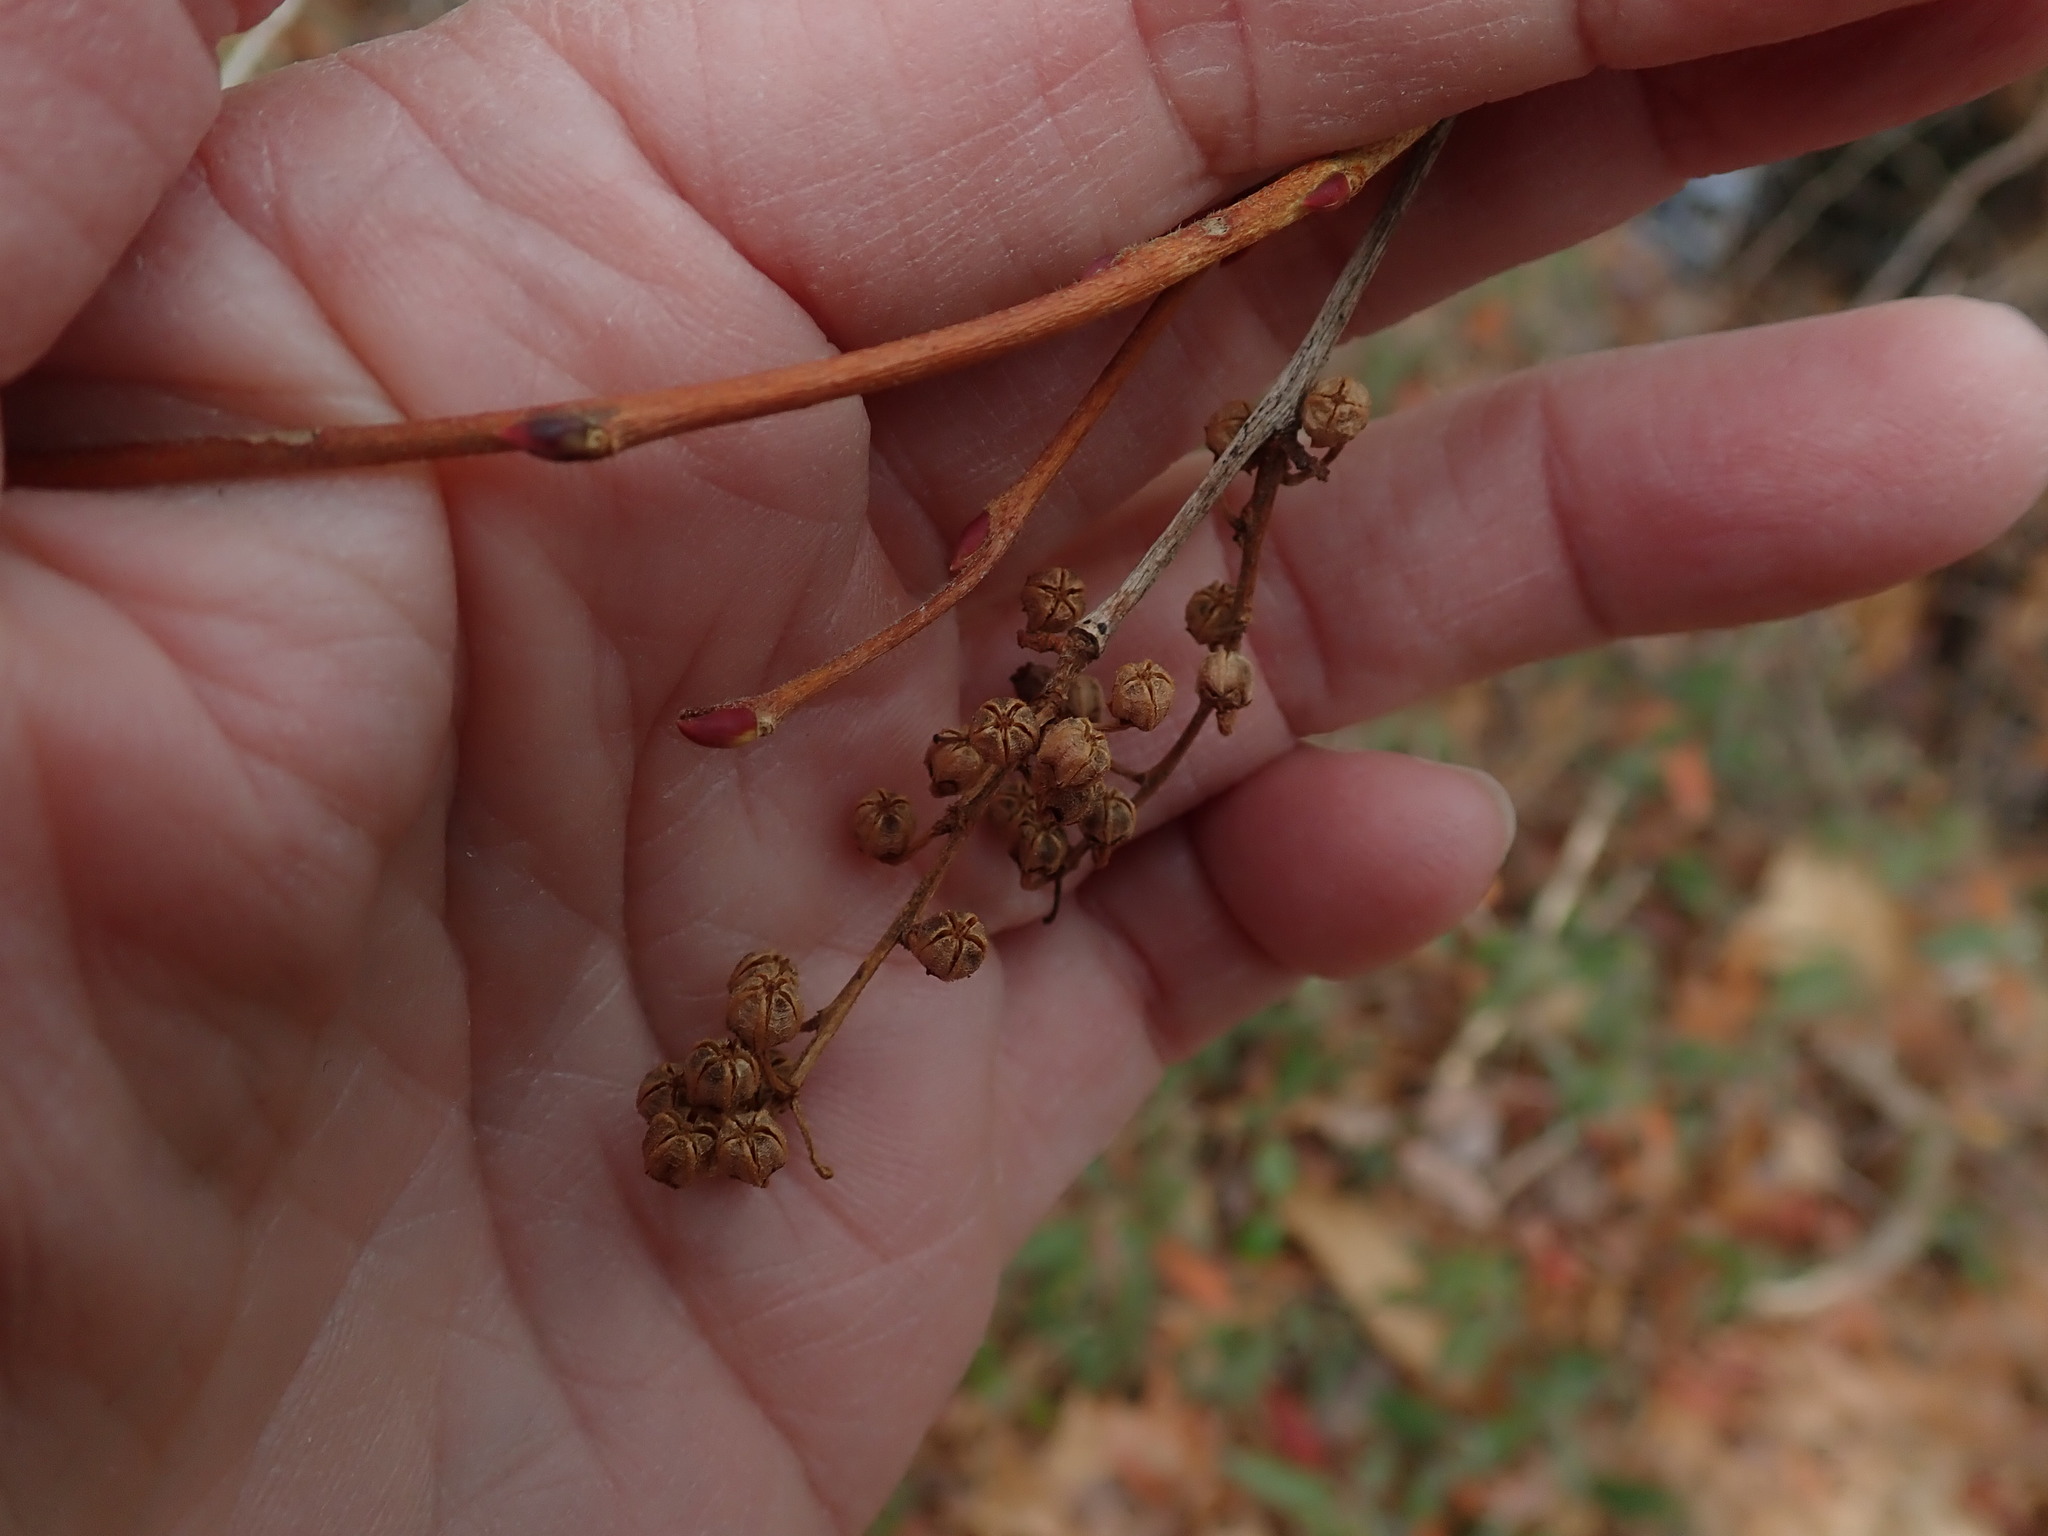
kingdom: Plantae
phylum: Tracheophyta
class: Magnoliopsida
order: Ericales
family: Ericaceae
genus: Lyonia
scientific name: Lyonia ligustrina
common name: Maleberry
